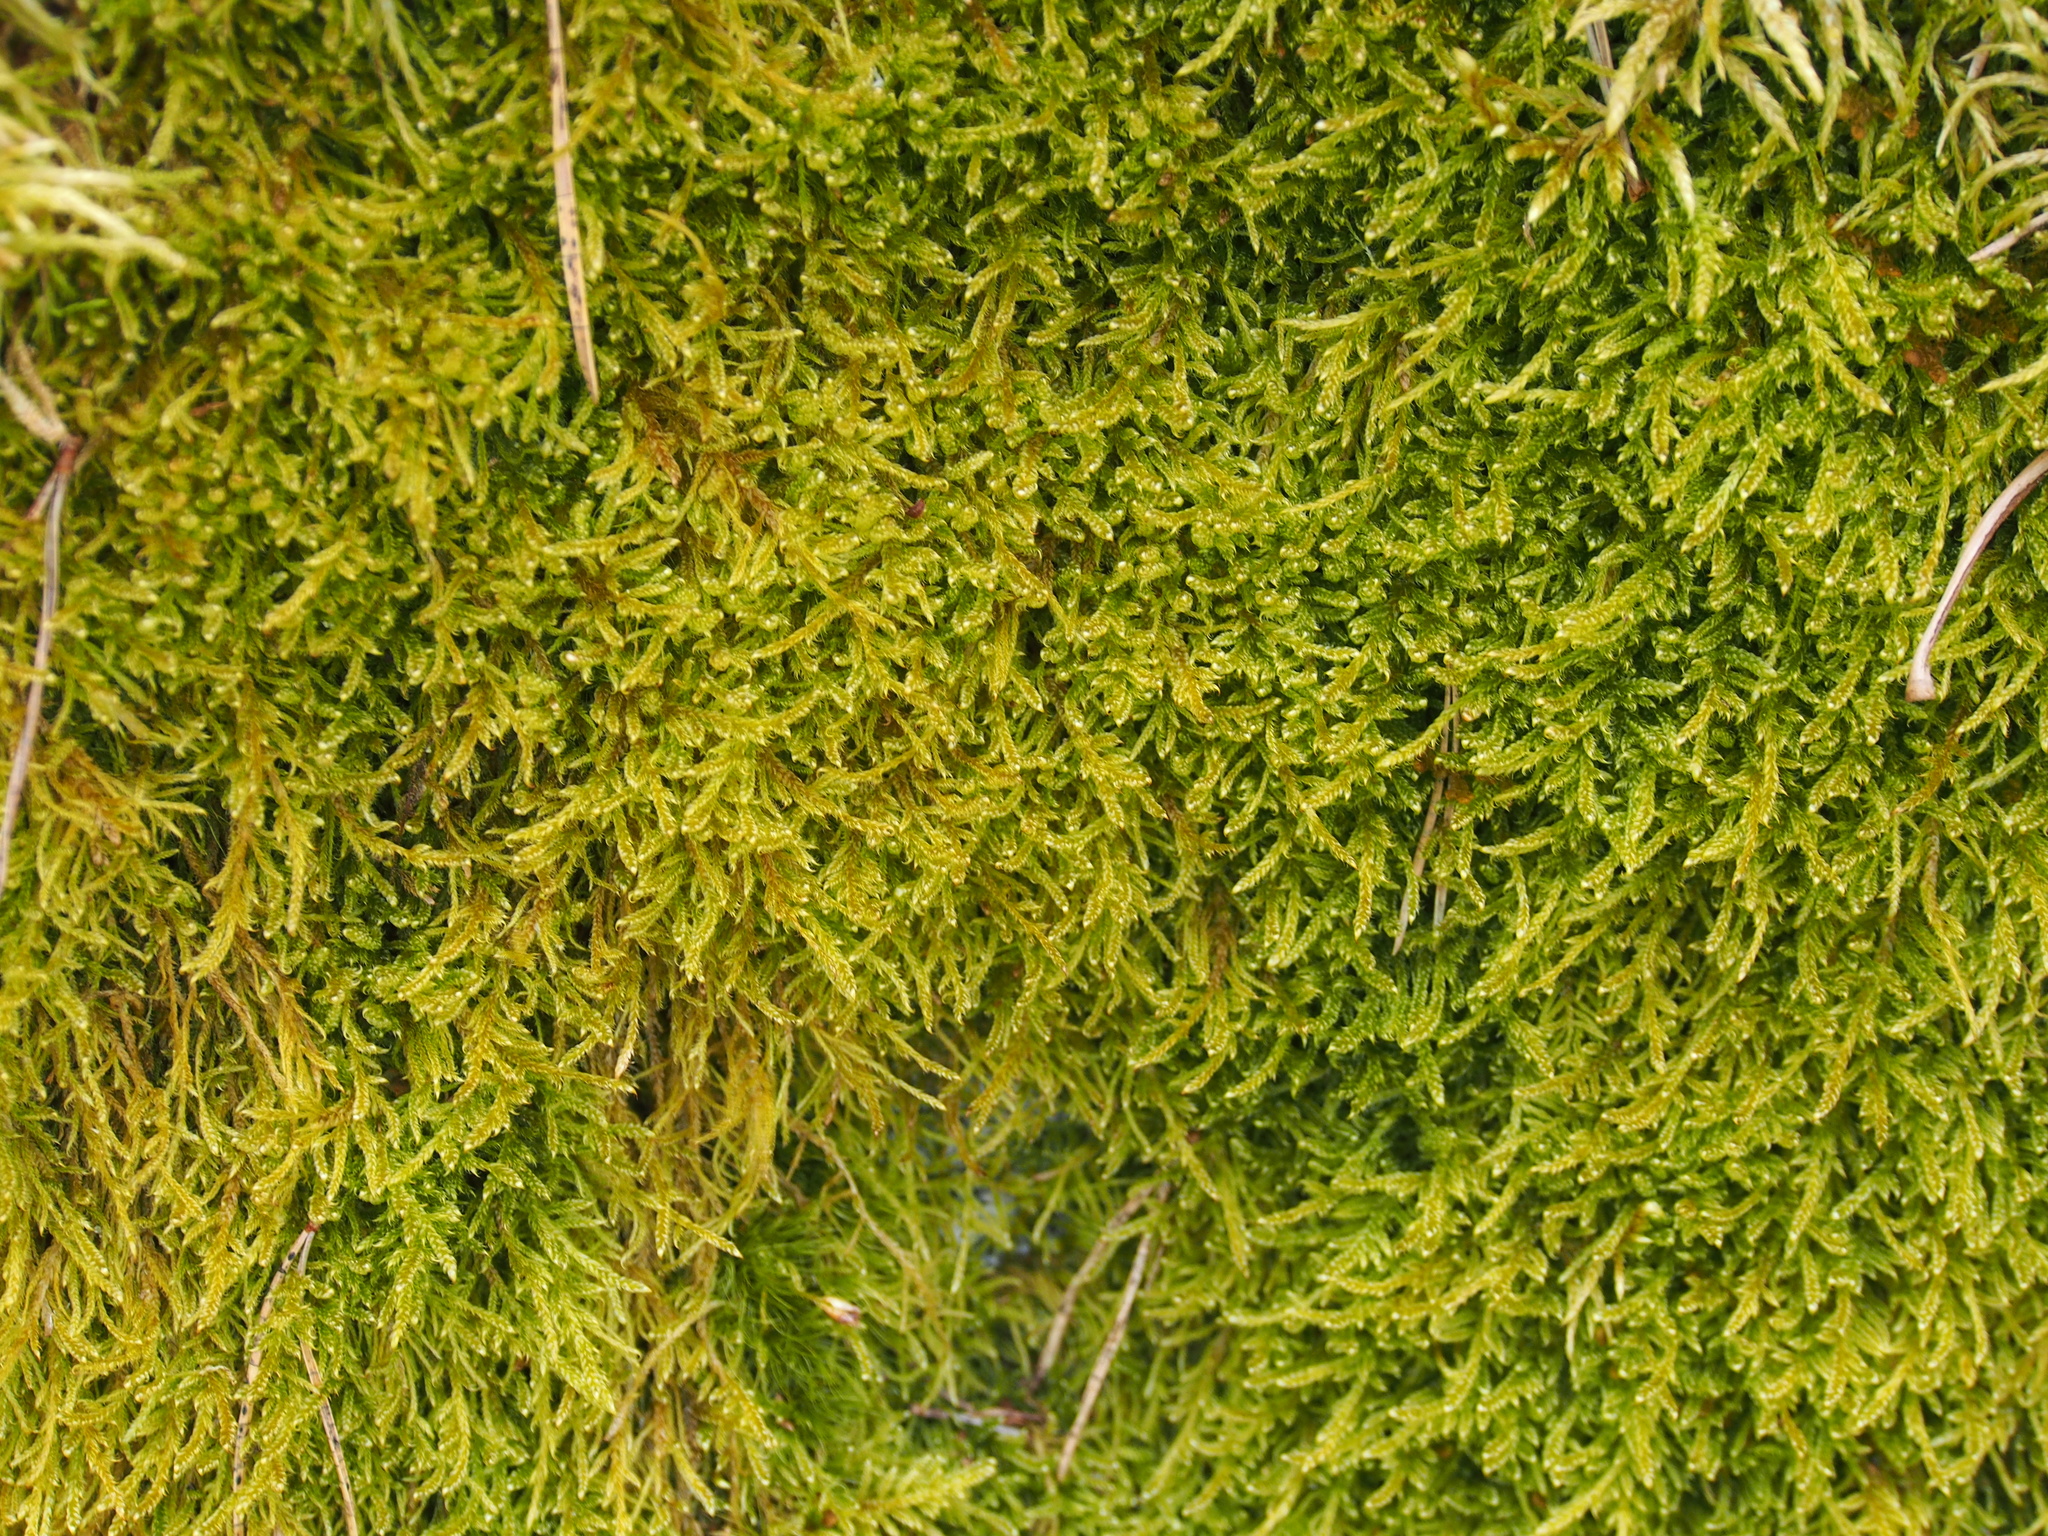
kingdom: Plantae
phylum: Bryophyta
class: Bryopsida
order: Hypnales
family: Hypnaceae
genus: Hypnum
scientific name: Hypnum cupressiforme
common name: Cypress-leaved plait-moss
